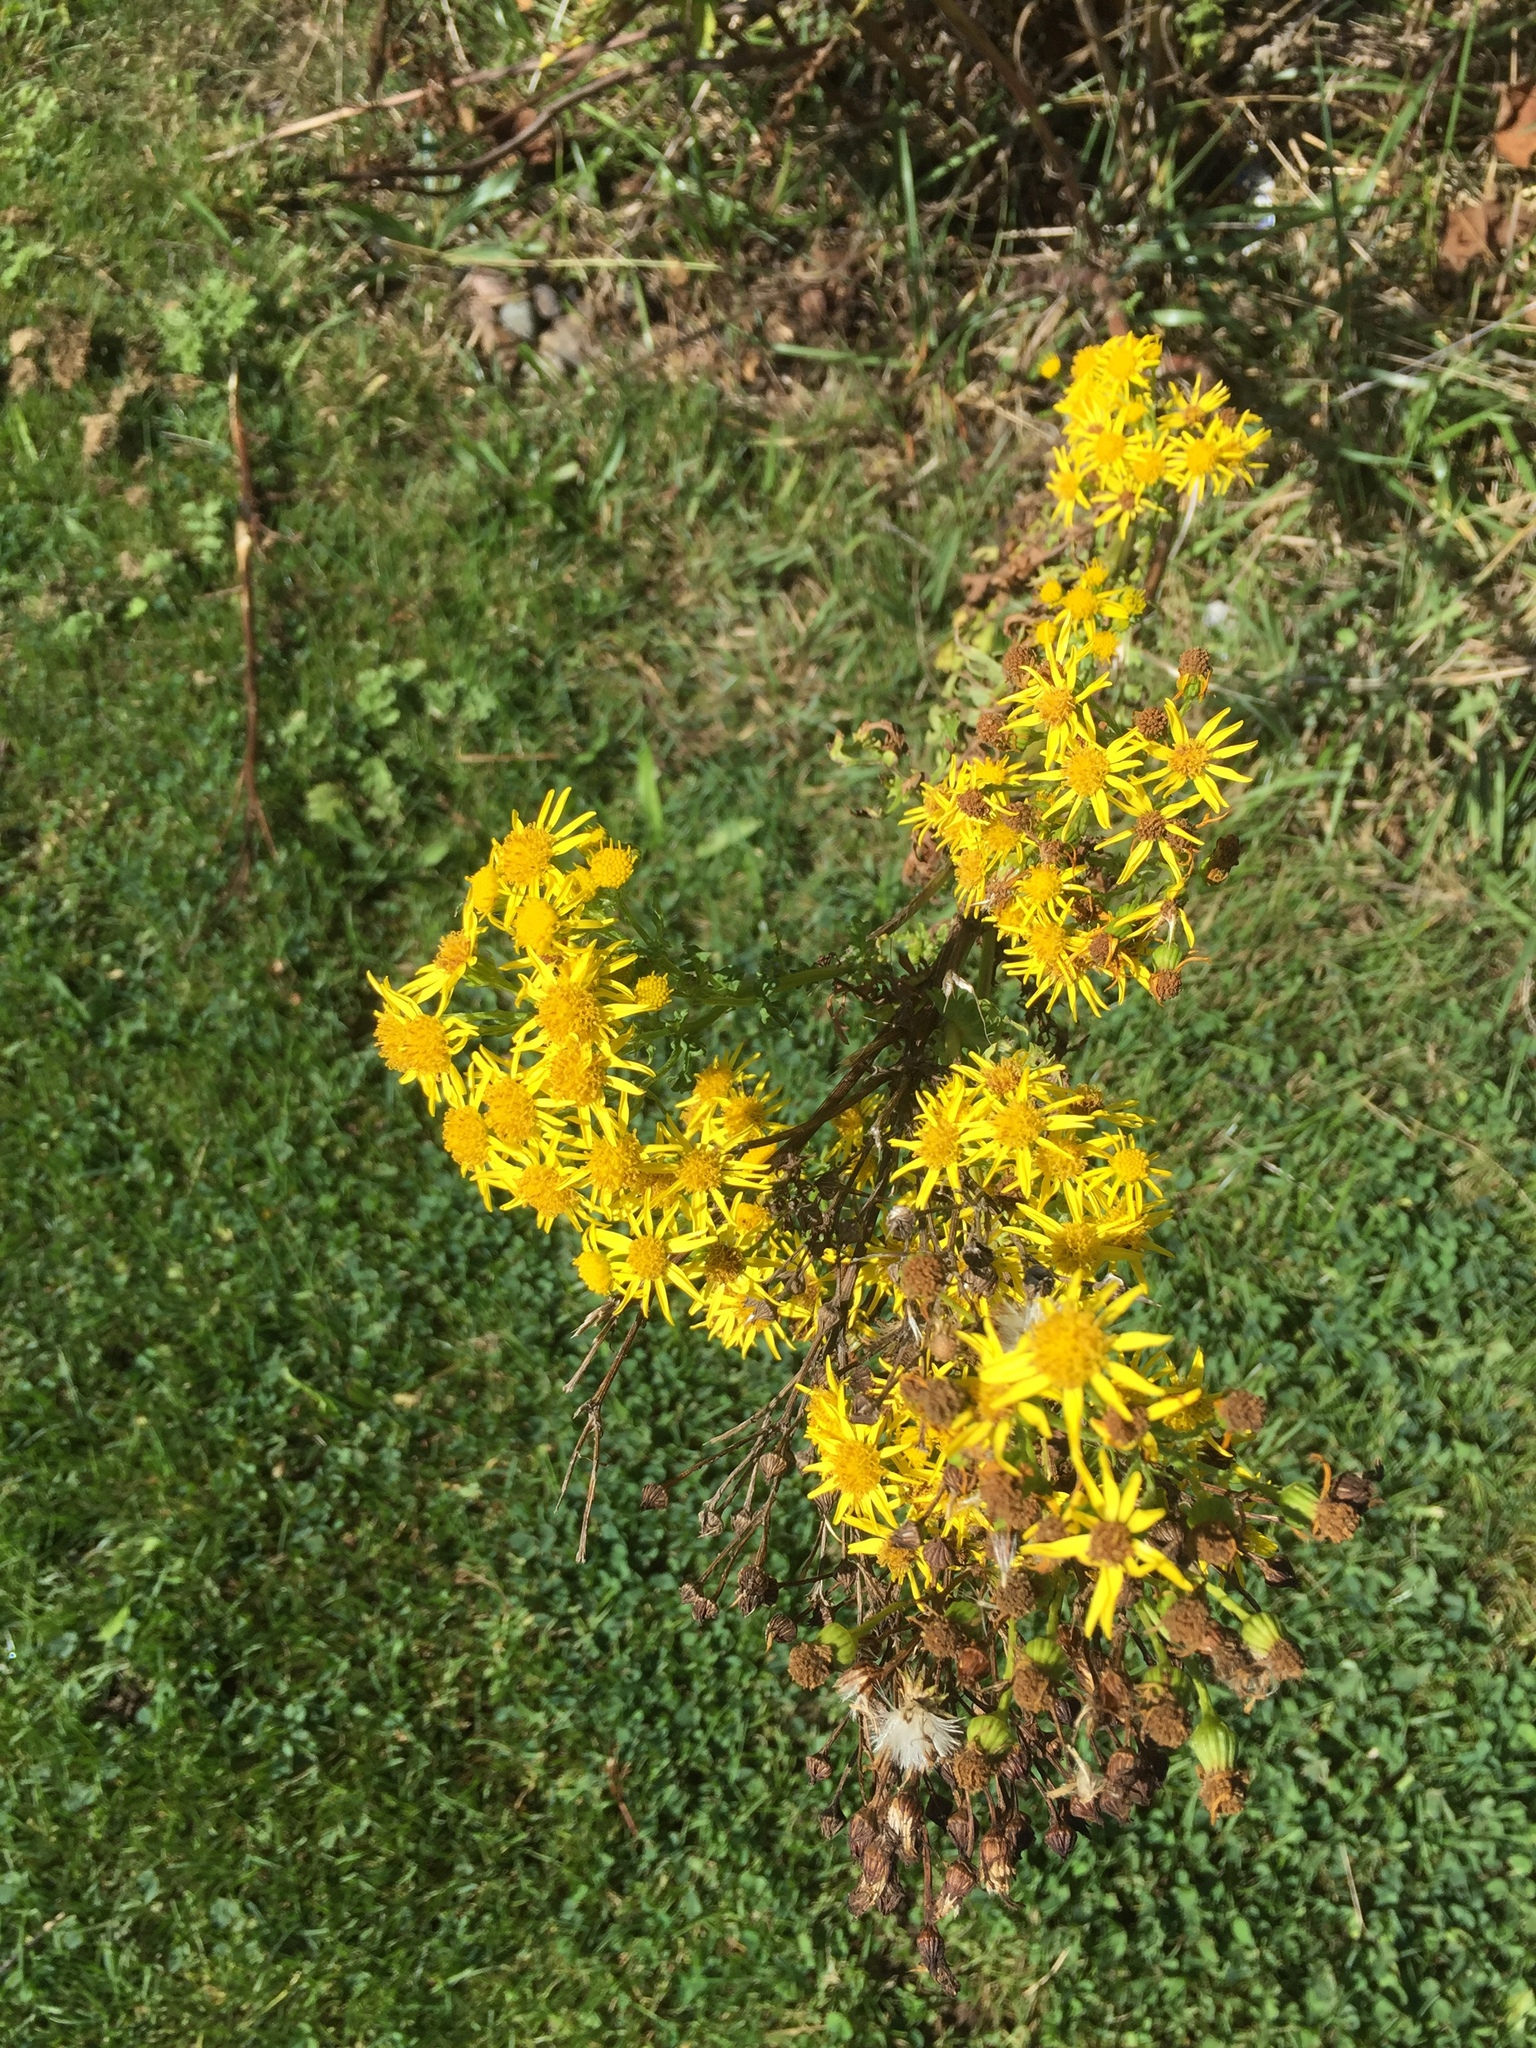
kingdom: Plantae
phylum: Tracheophyta
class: Magnoliopsida
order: Asterales
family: Asteraceae
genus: Jacobaea
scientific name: Jacobaea vulgaris
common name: Stinking willie
